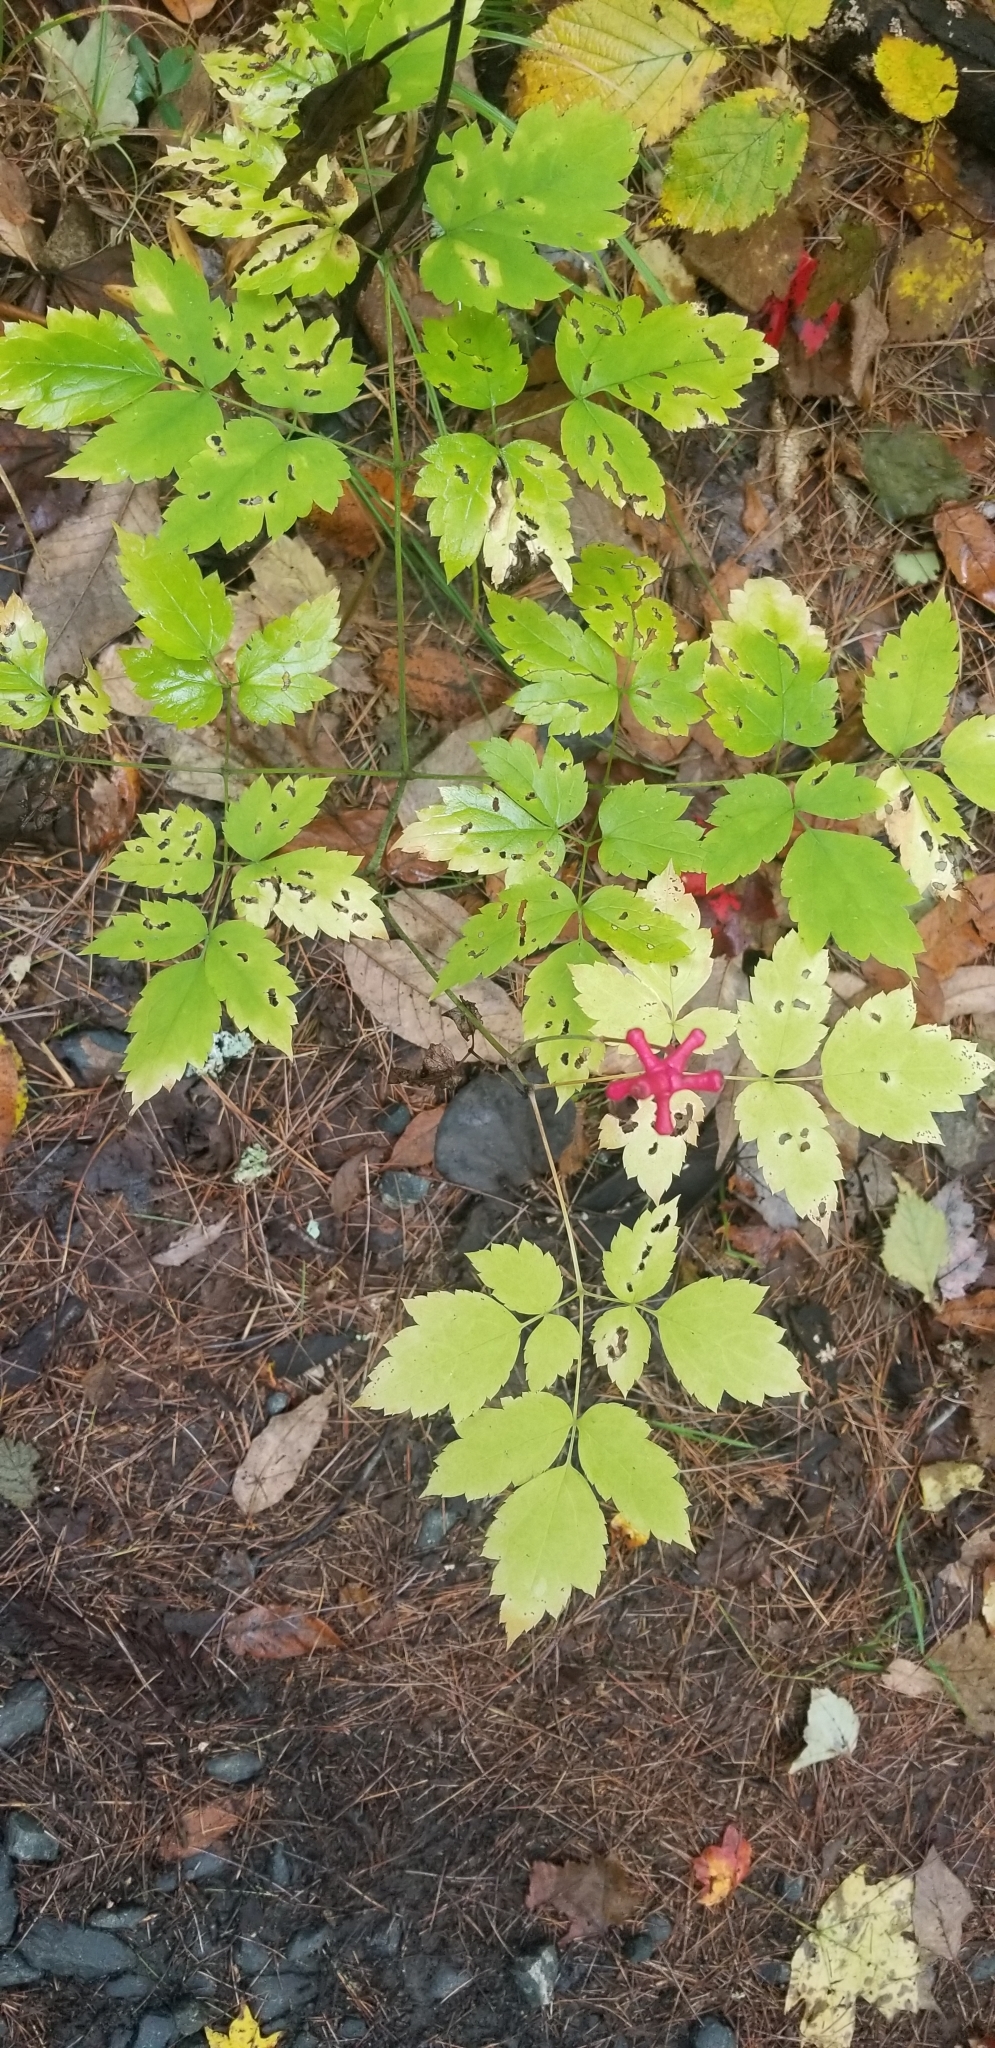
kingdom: Plantae
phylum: Tracheophyta
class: Magnoliopsida
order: Ranunculales
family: Ranunculaceae
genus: Actaea
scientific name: Actaea pachypoda
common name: Doll's-eyes
